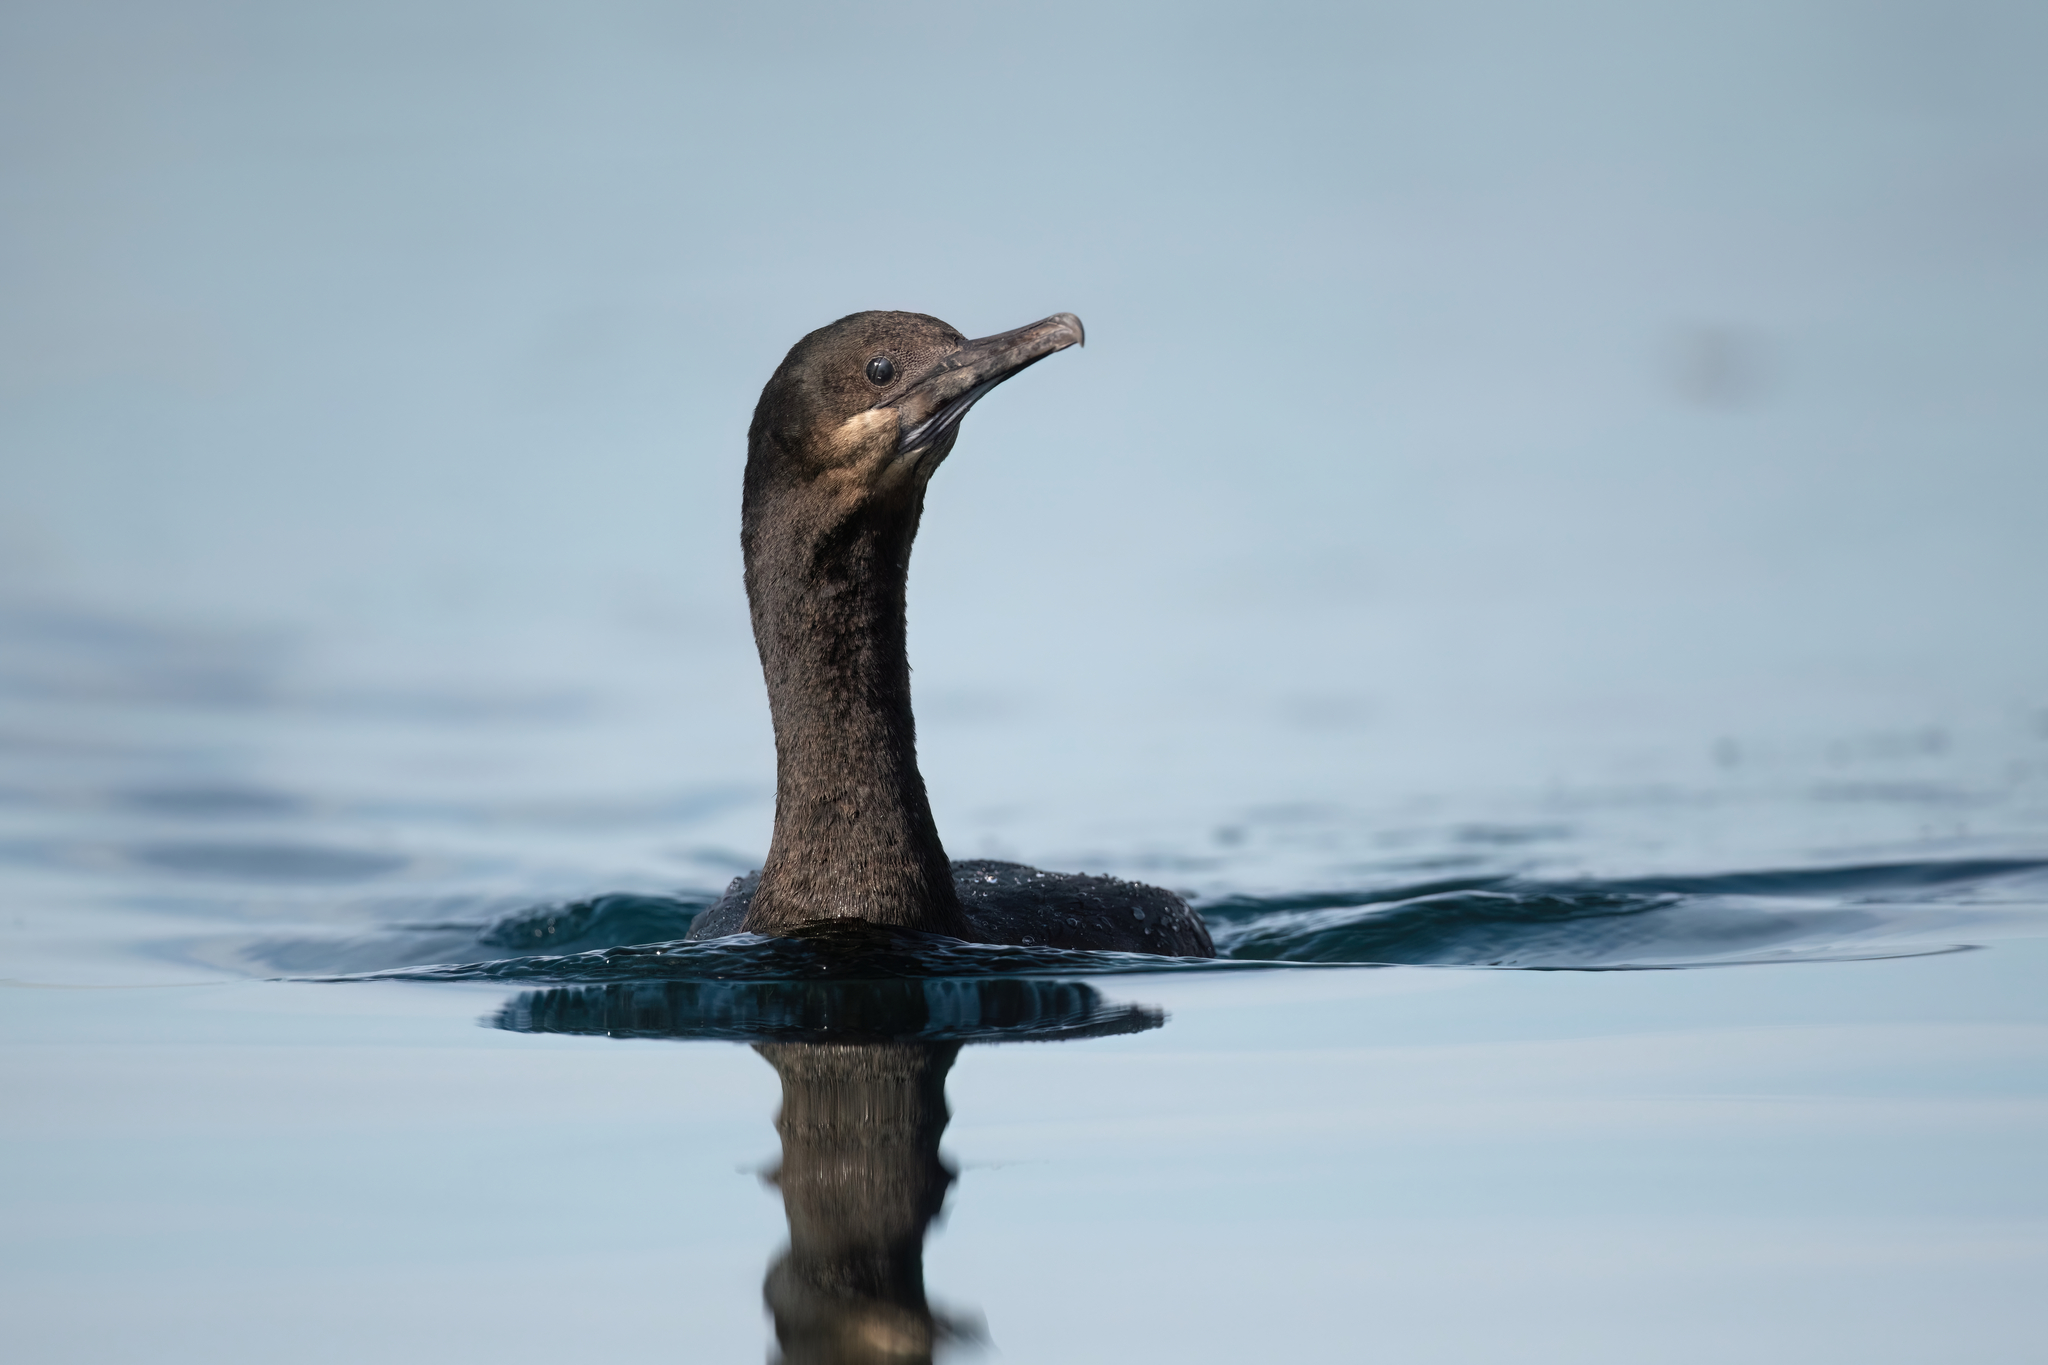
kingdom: Animalia
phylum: Chordata
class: Aves
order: Suliformes
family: Phalacrocoracidae
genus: Urile
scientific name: Urile penicillatus
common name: Brandt's cormorant
